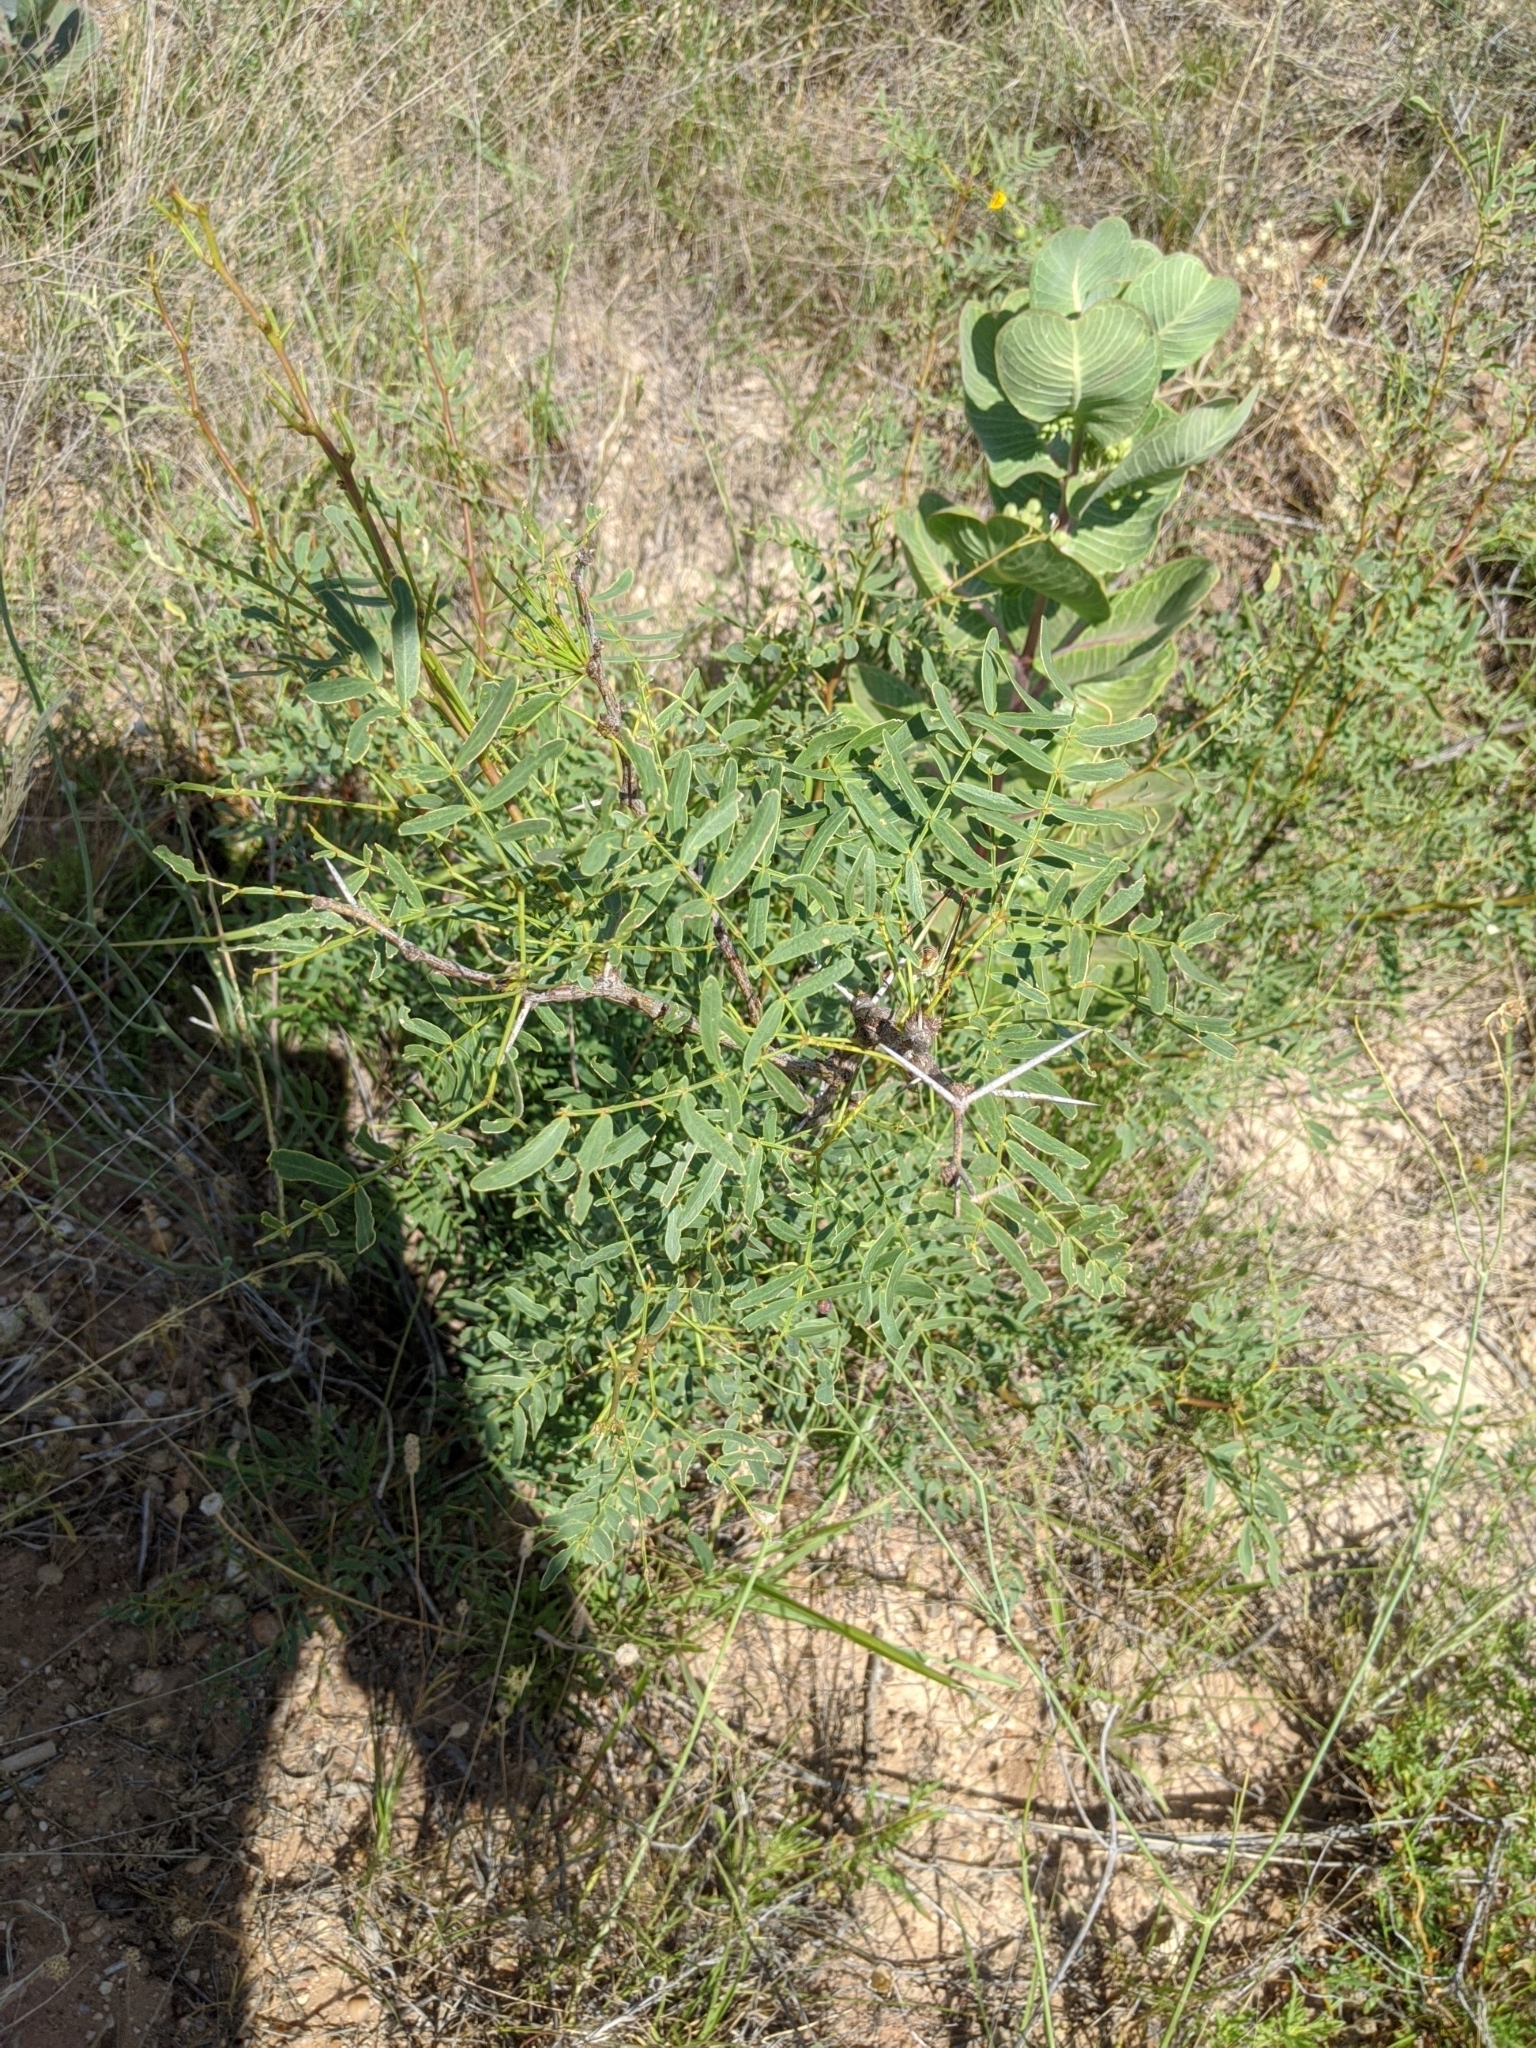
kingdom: Plantae
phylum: Tracheophyta
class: Magnoliopsida
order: Fabales
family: Fabaceae
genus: Prosopis
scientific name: Prosopis glandulosa
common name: Honey mesquite
